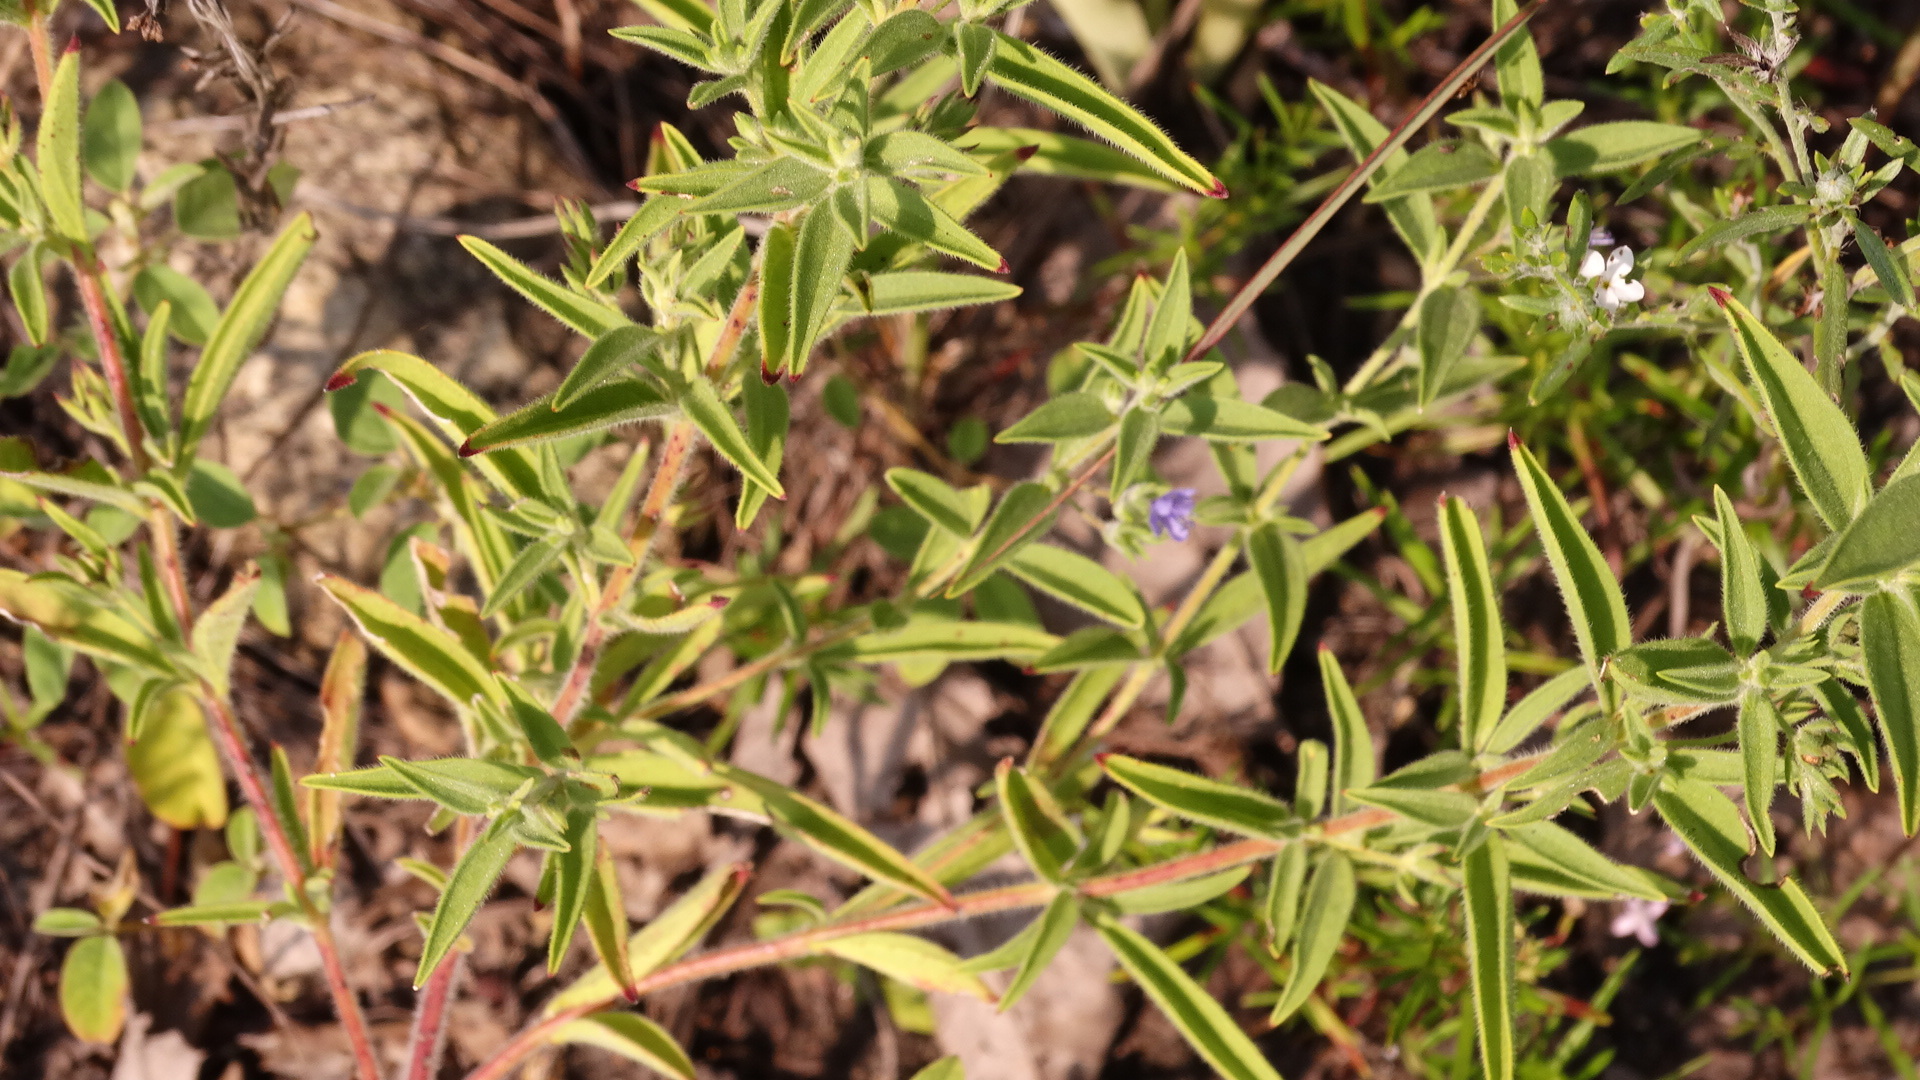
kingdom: Plantae
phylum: Tracheophyta
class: Magnoliopsida
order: Lamiales
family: Lamiaceae
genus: Trichostema
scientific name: Trichostema brachiatum
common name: False pennyroyal
